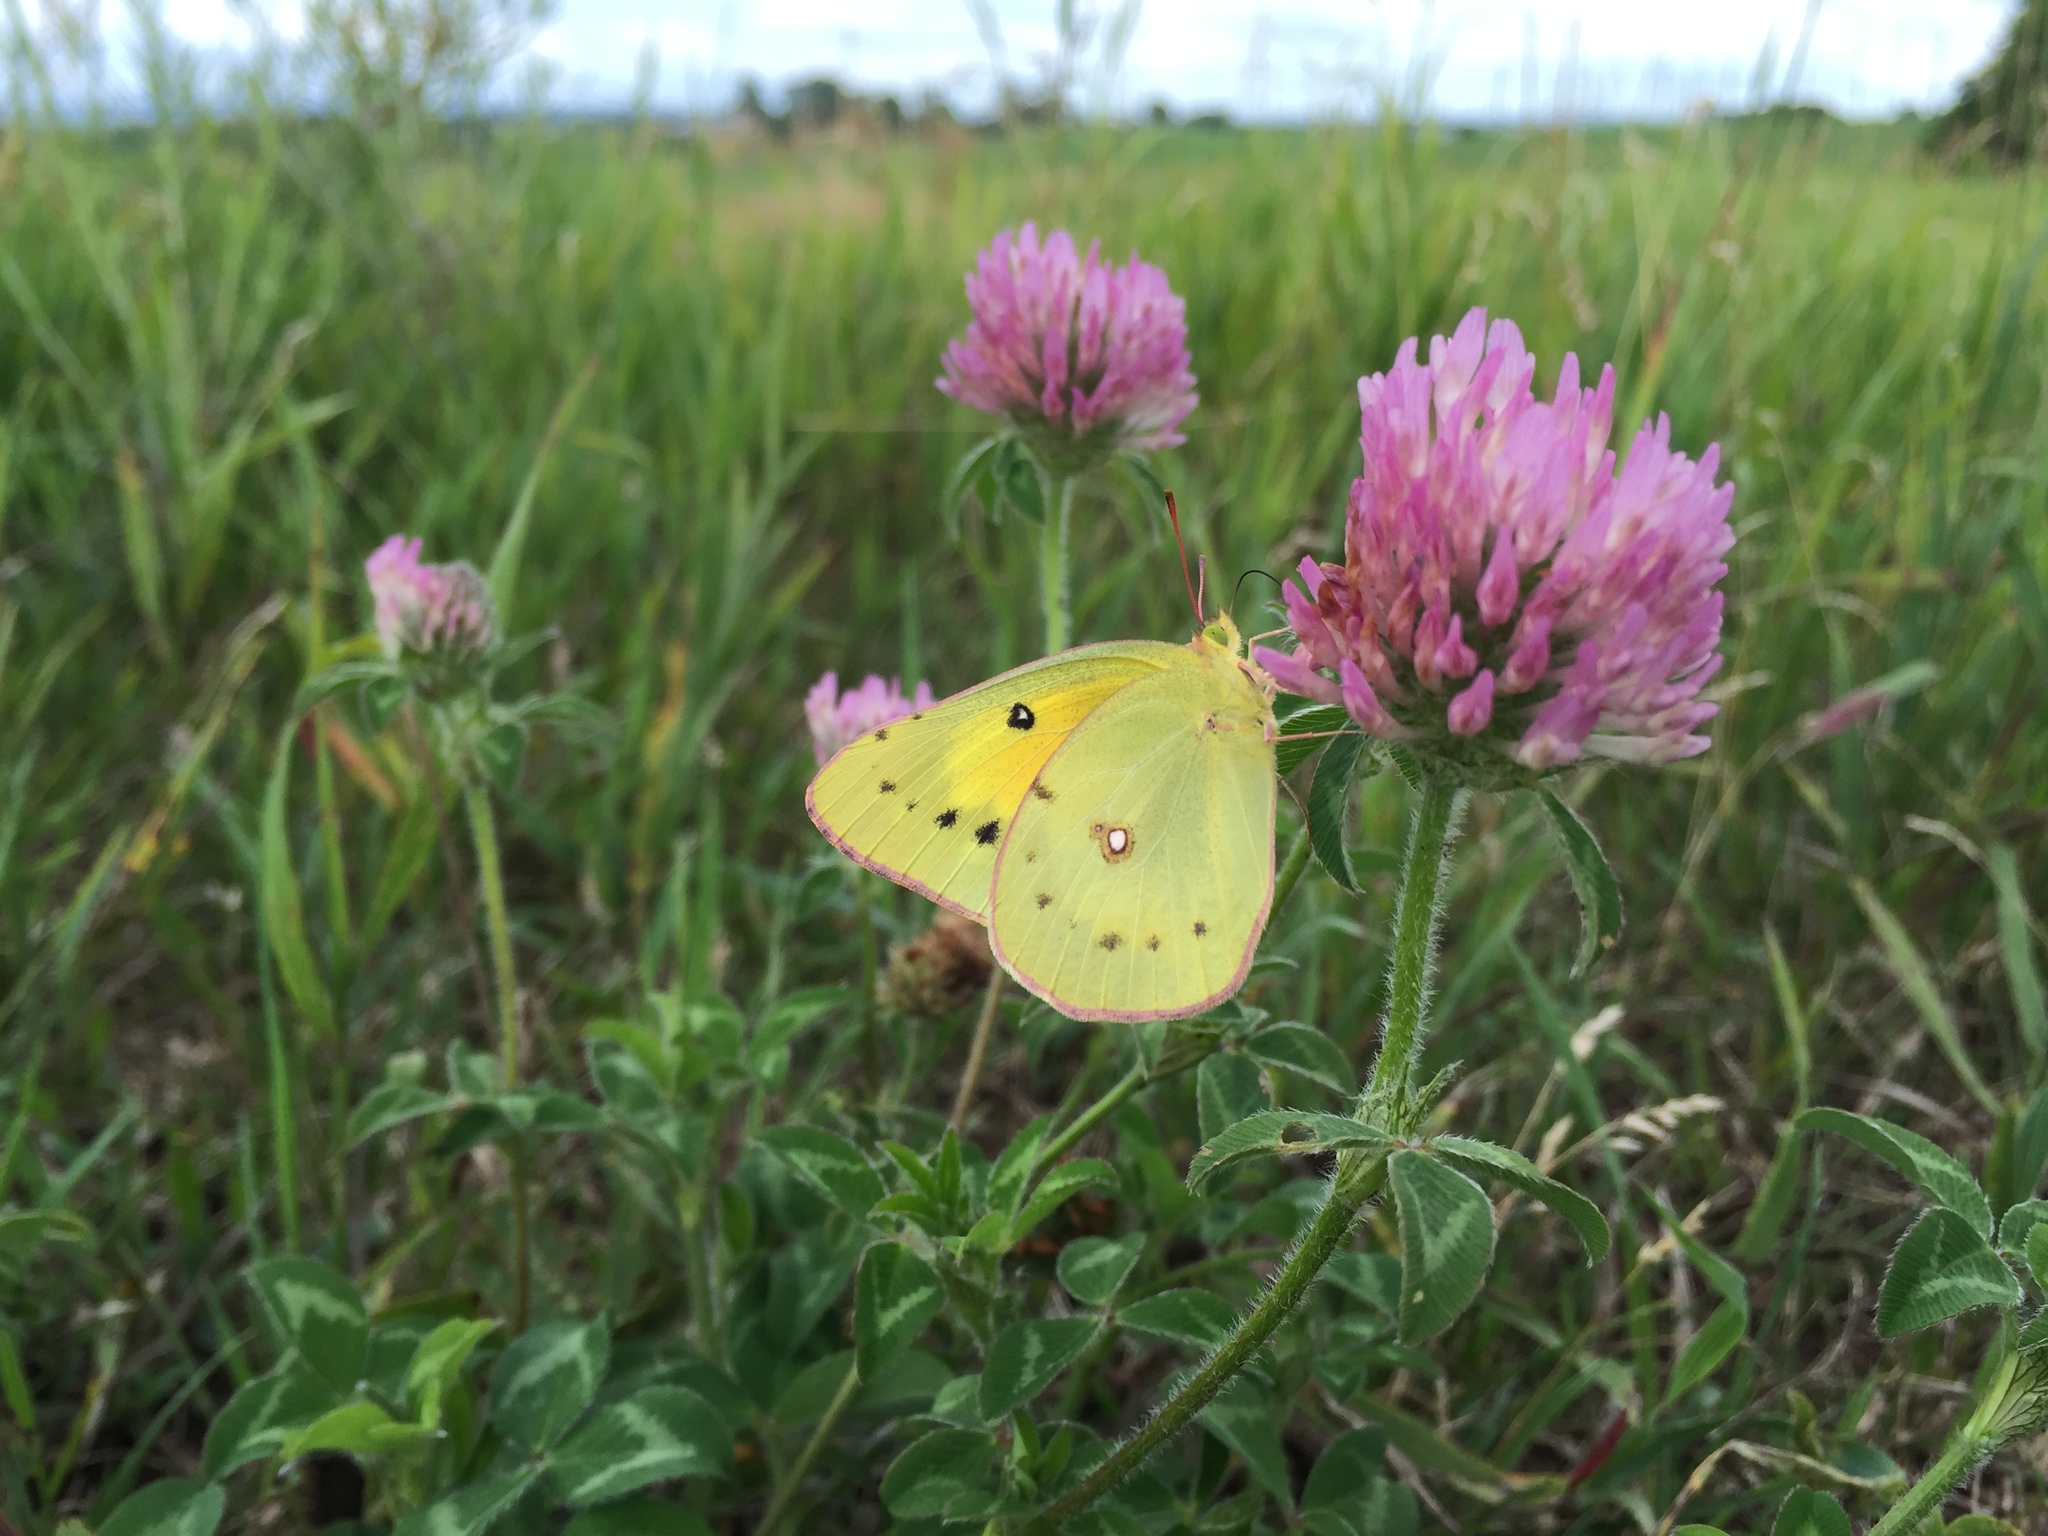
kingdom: Animalia
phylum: Arthropoda
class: Insecta
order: Lepidoptera
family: Pieridae
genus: Colias
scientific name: Colias eurytheme
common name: Alfalfa butterfly
